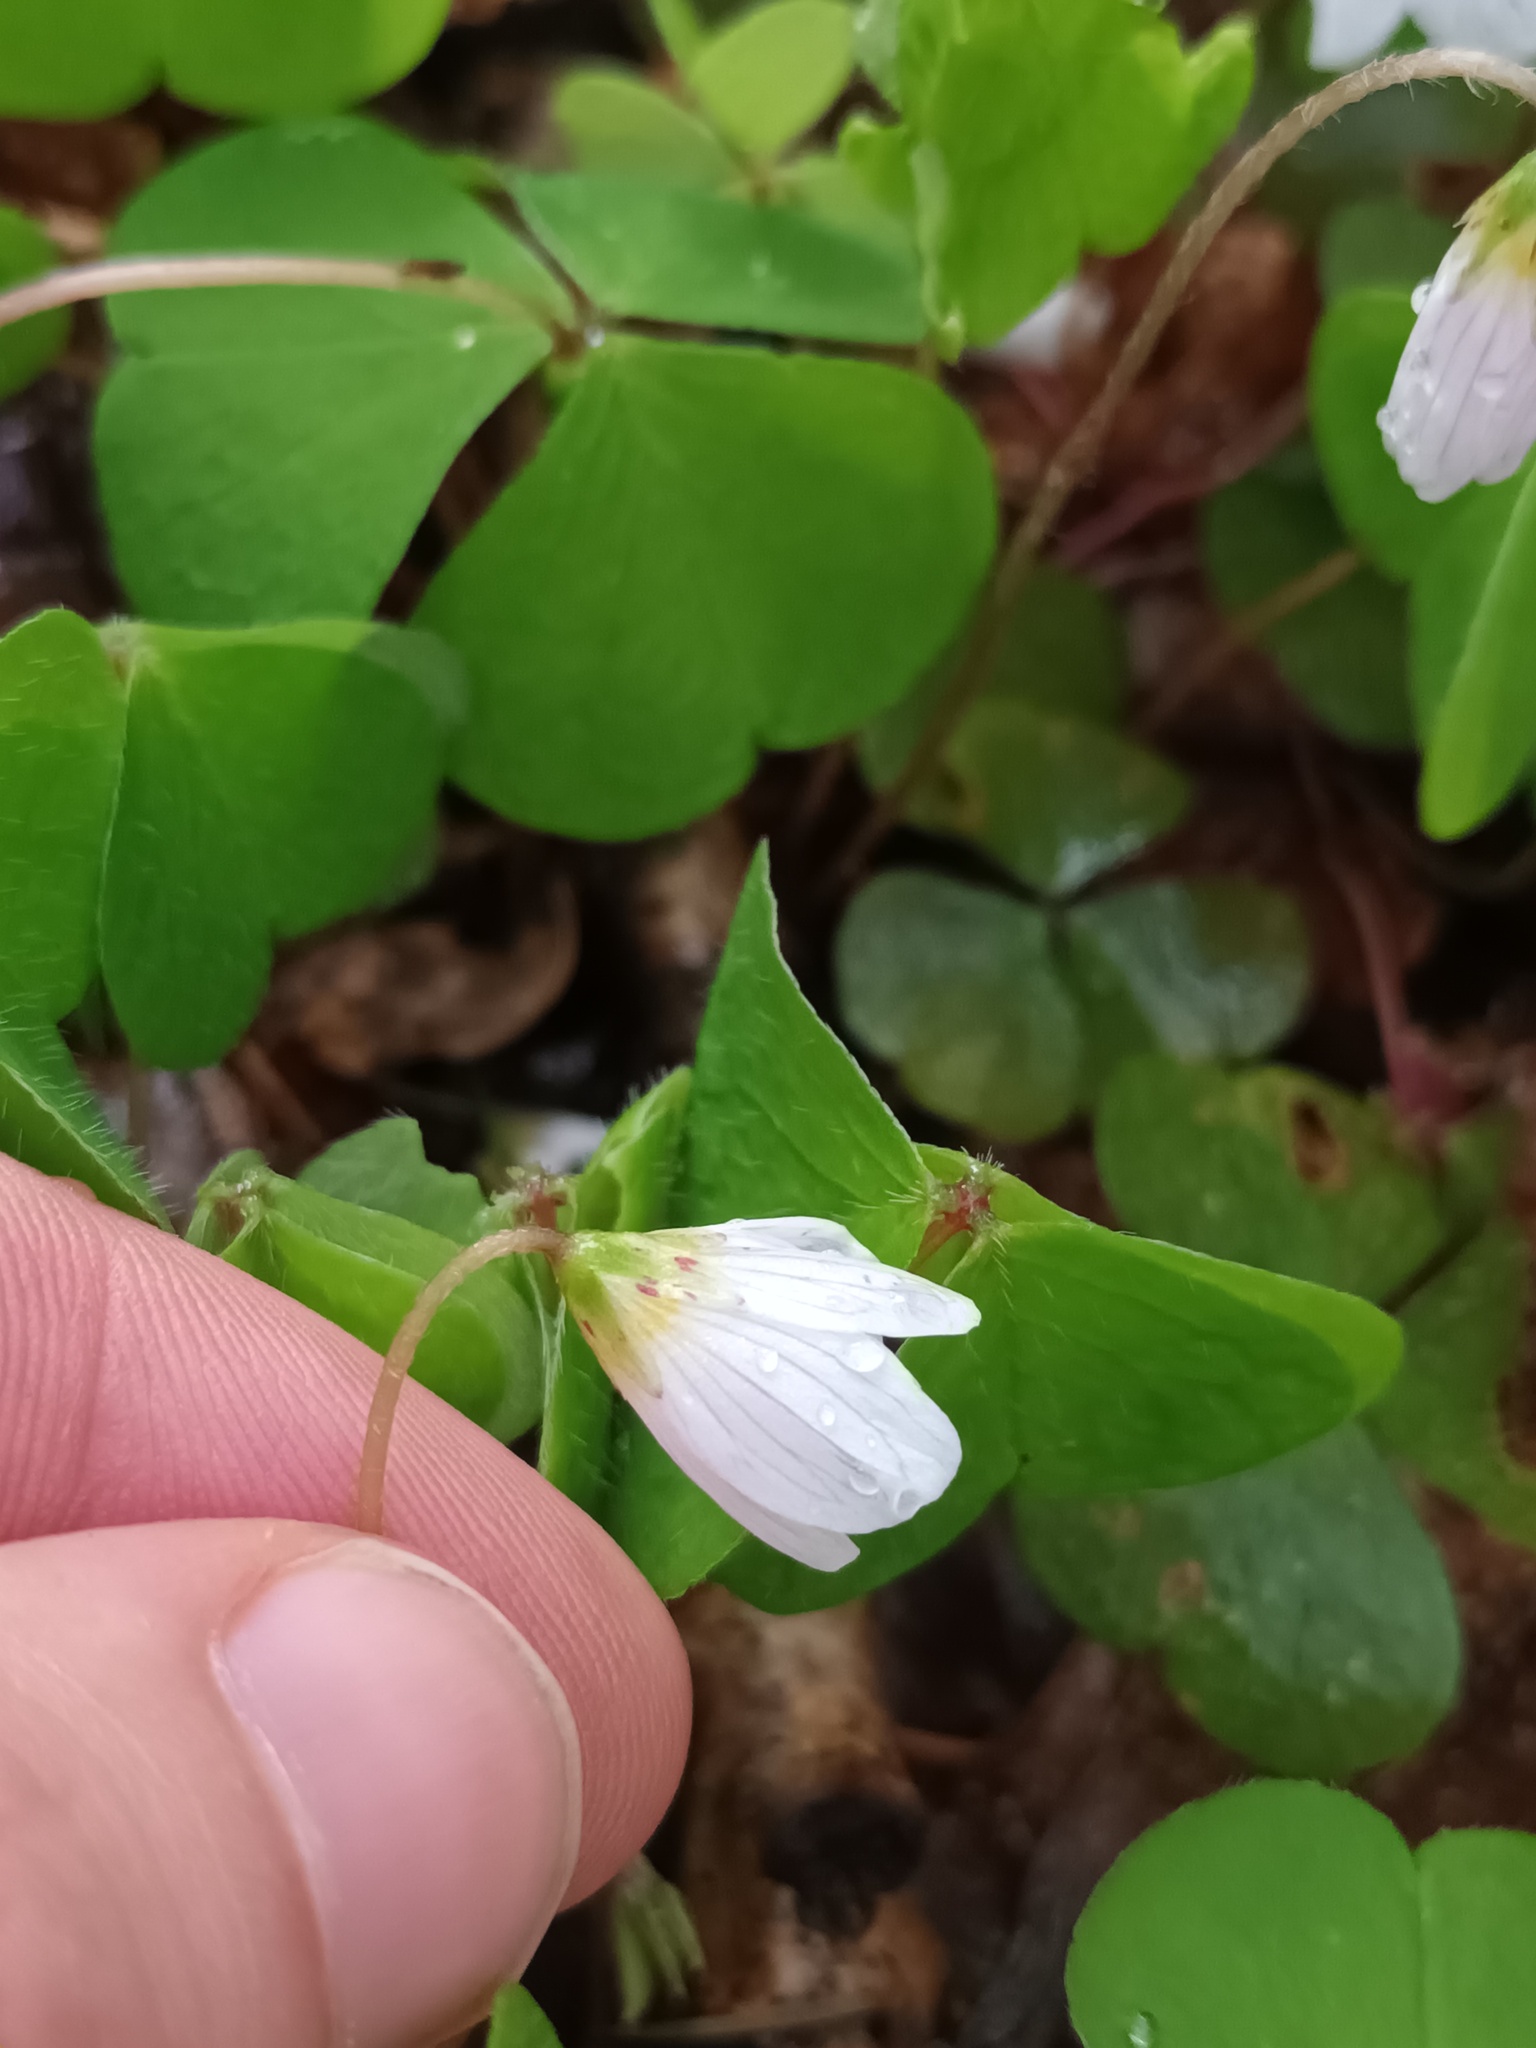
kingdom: Plantae
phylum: Tracheophyta
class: Magnoliopsida
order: Oxalidales
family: Oxalidaceae
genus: Oxalis
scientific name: Oxalis acetosella
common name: Wood-sorrel
